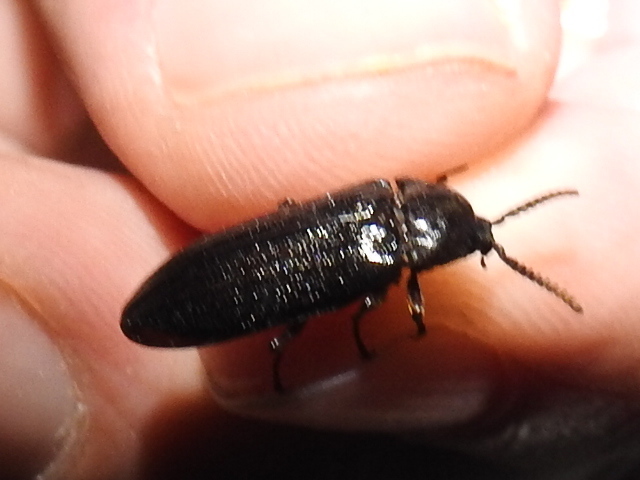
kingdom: Animalia
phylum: Arthropoda
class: Insecta
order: Coleoptera
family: Callirhipidae
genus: Zenoa
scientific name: Zenoa picea
